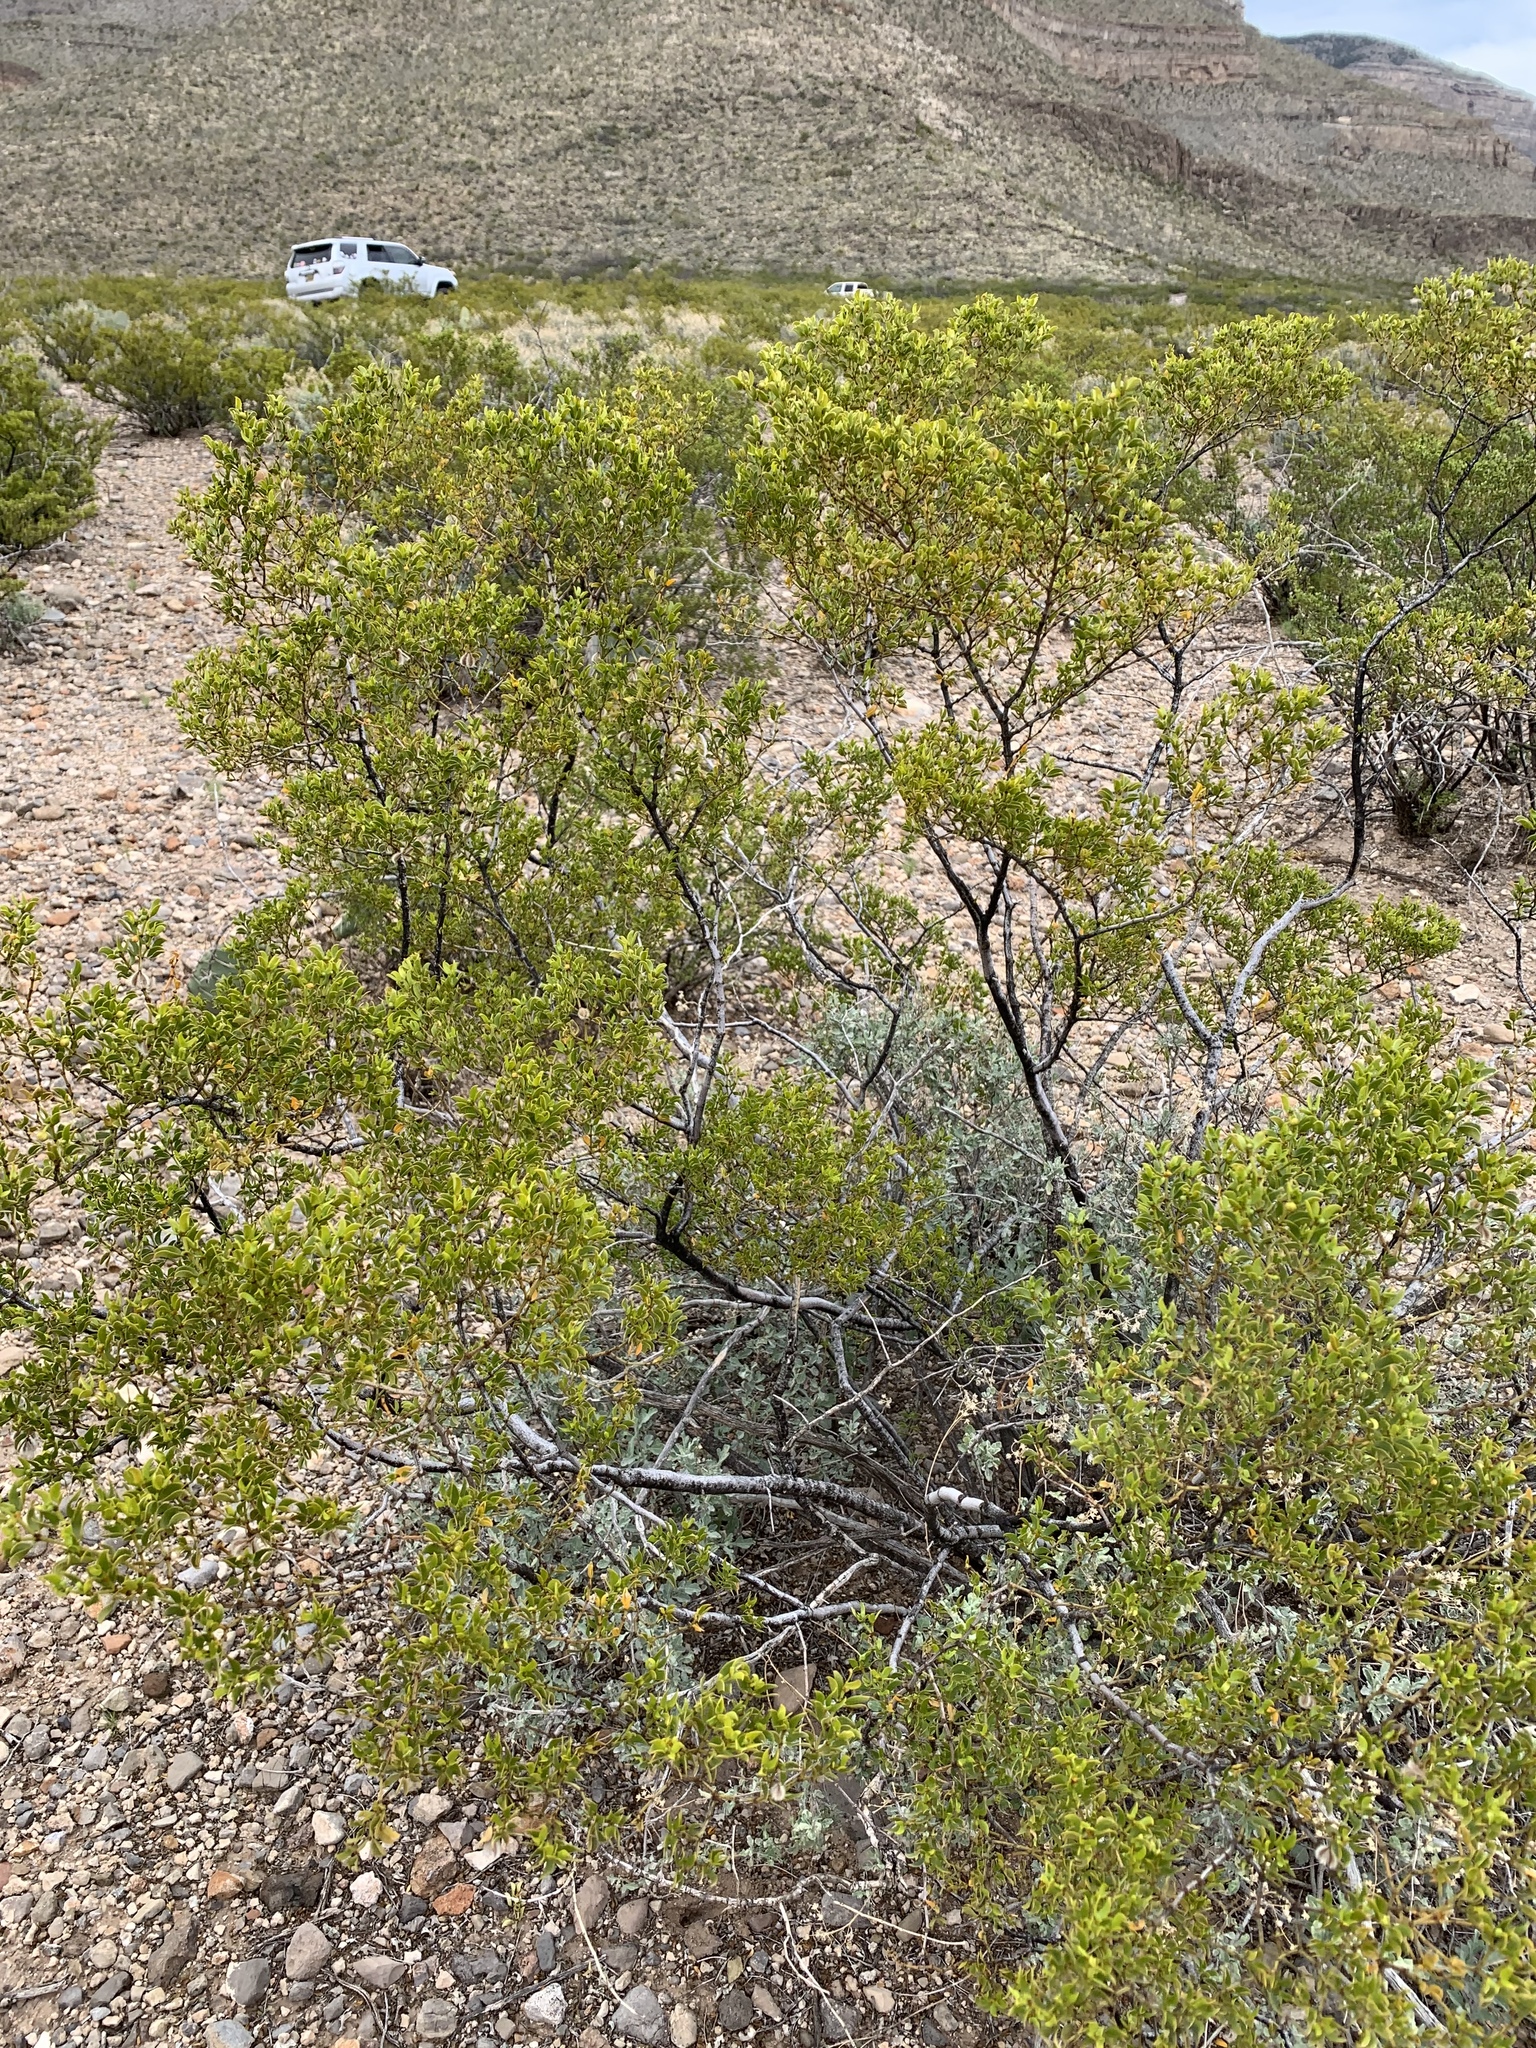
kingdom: Plantae
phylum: Tracheophyta
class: Magnoliopsida
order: Zygophyllales
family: Zygophyllaceae
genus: Larrea
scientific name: Larrea tridentata
